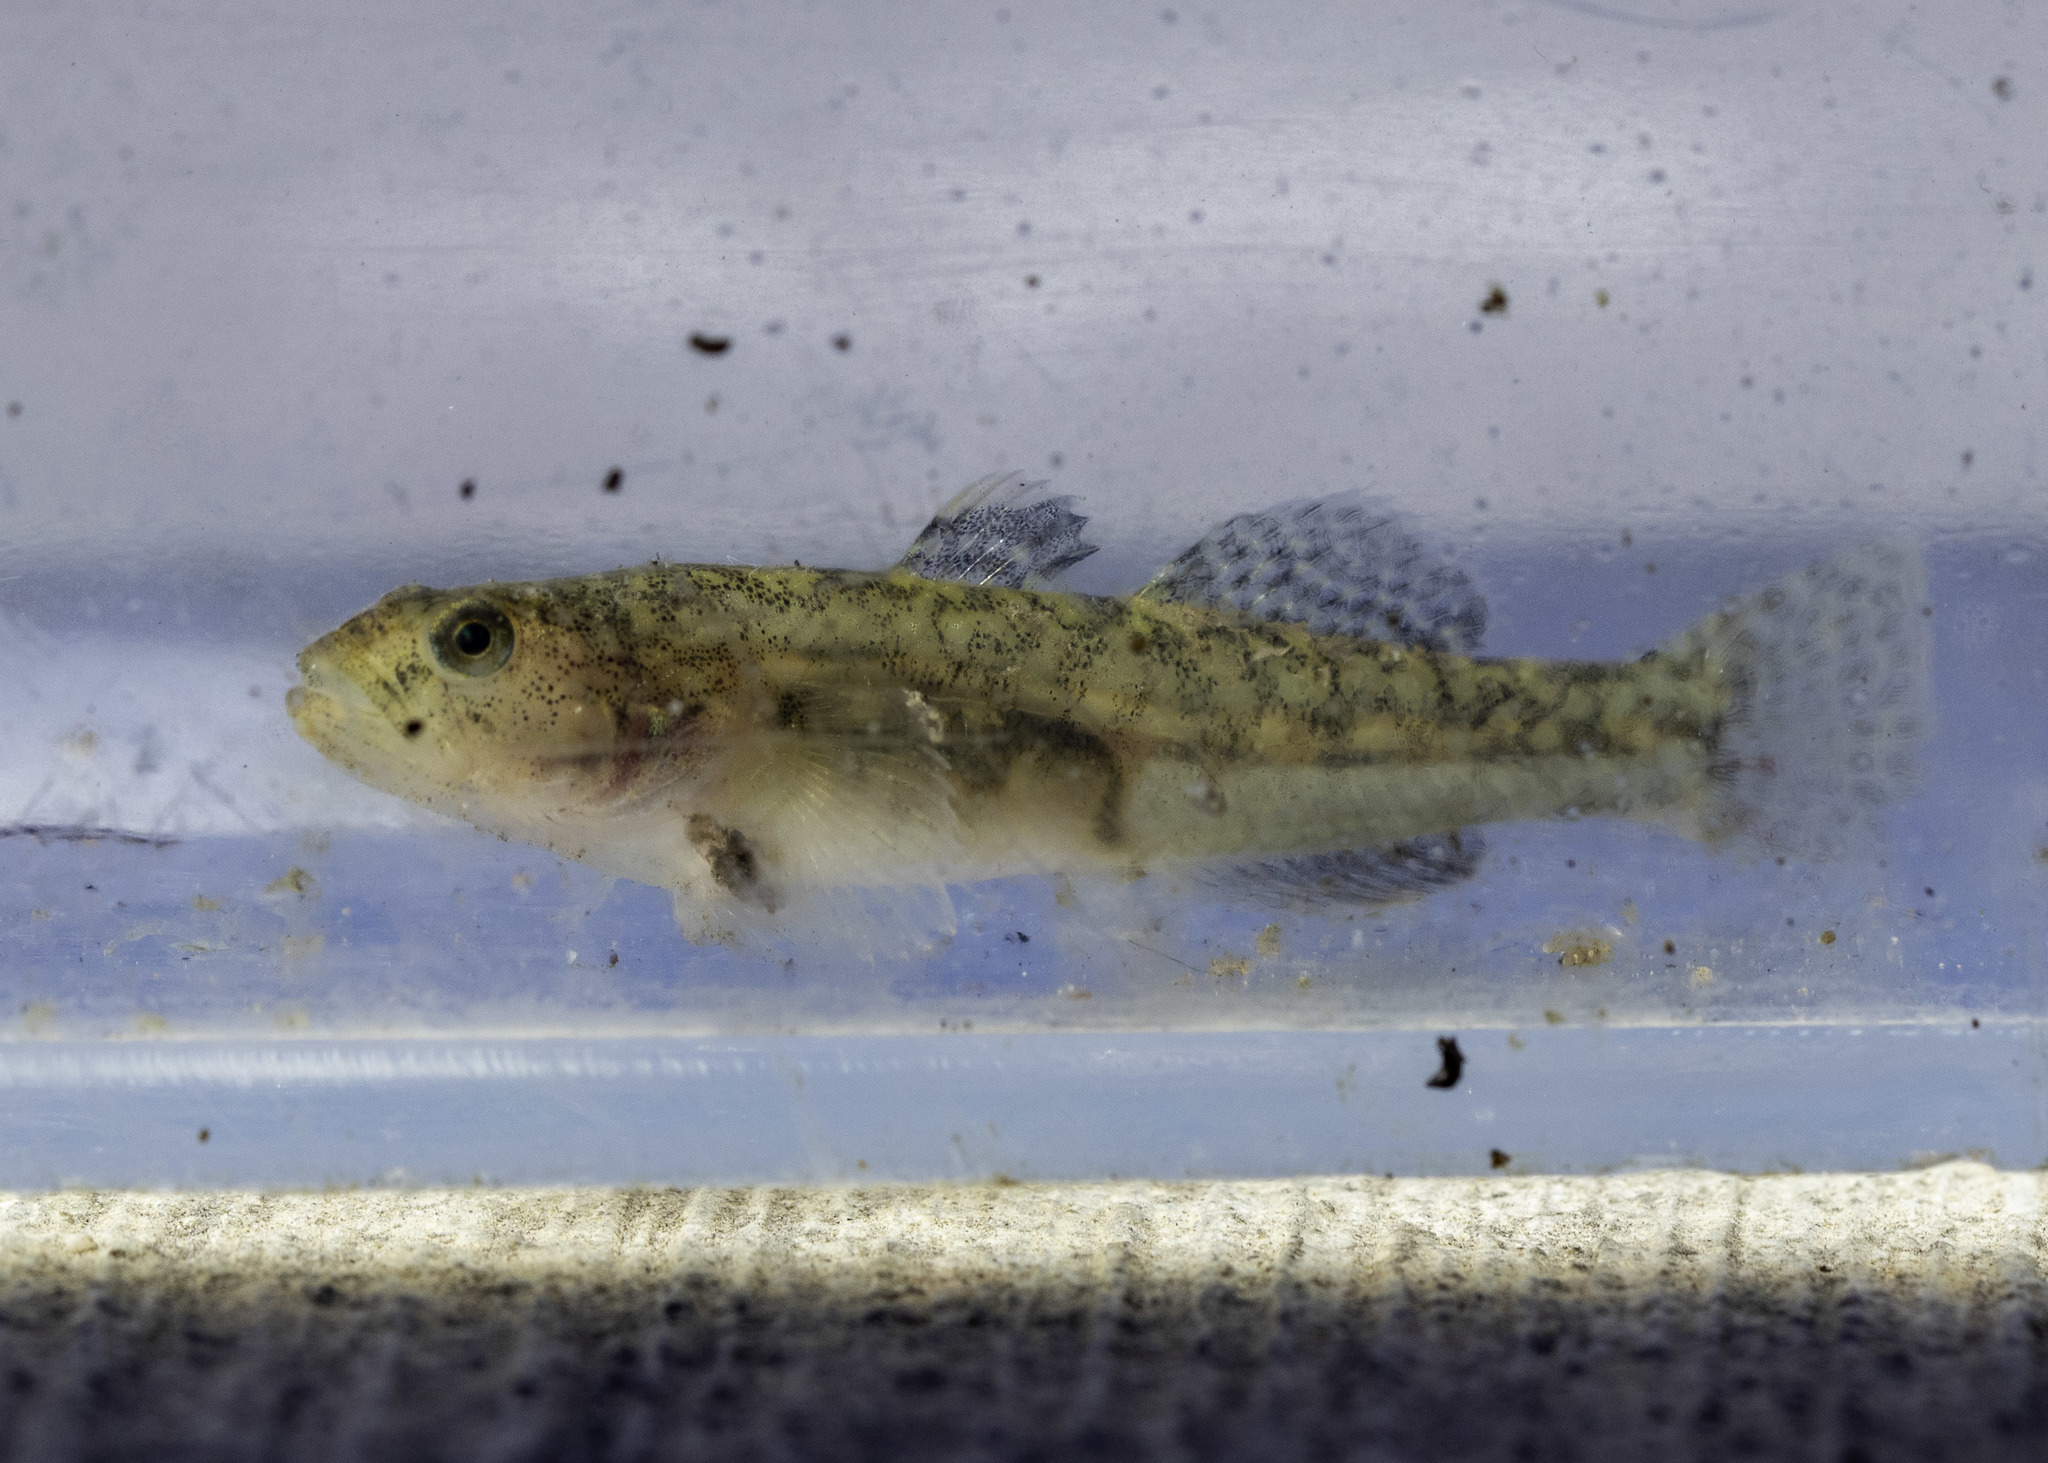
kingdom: Animalia
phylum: Chordata
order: Perciformes
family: Gobiidae
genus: Eucyclogobius
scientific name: Eucyclogobius newberryi
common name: Tidewater goby
